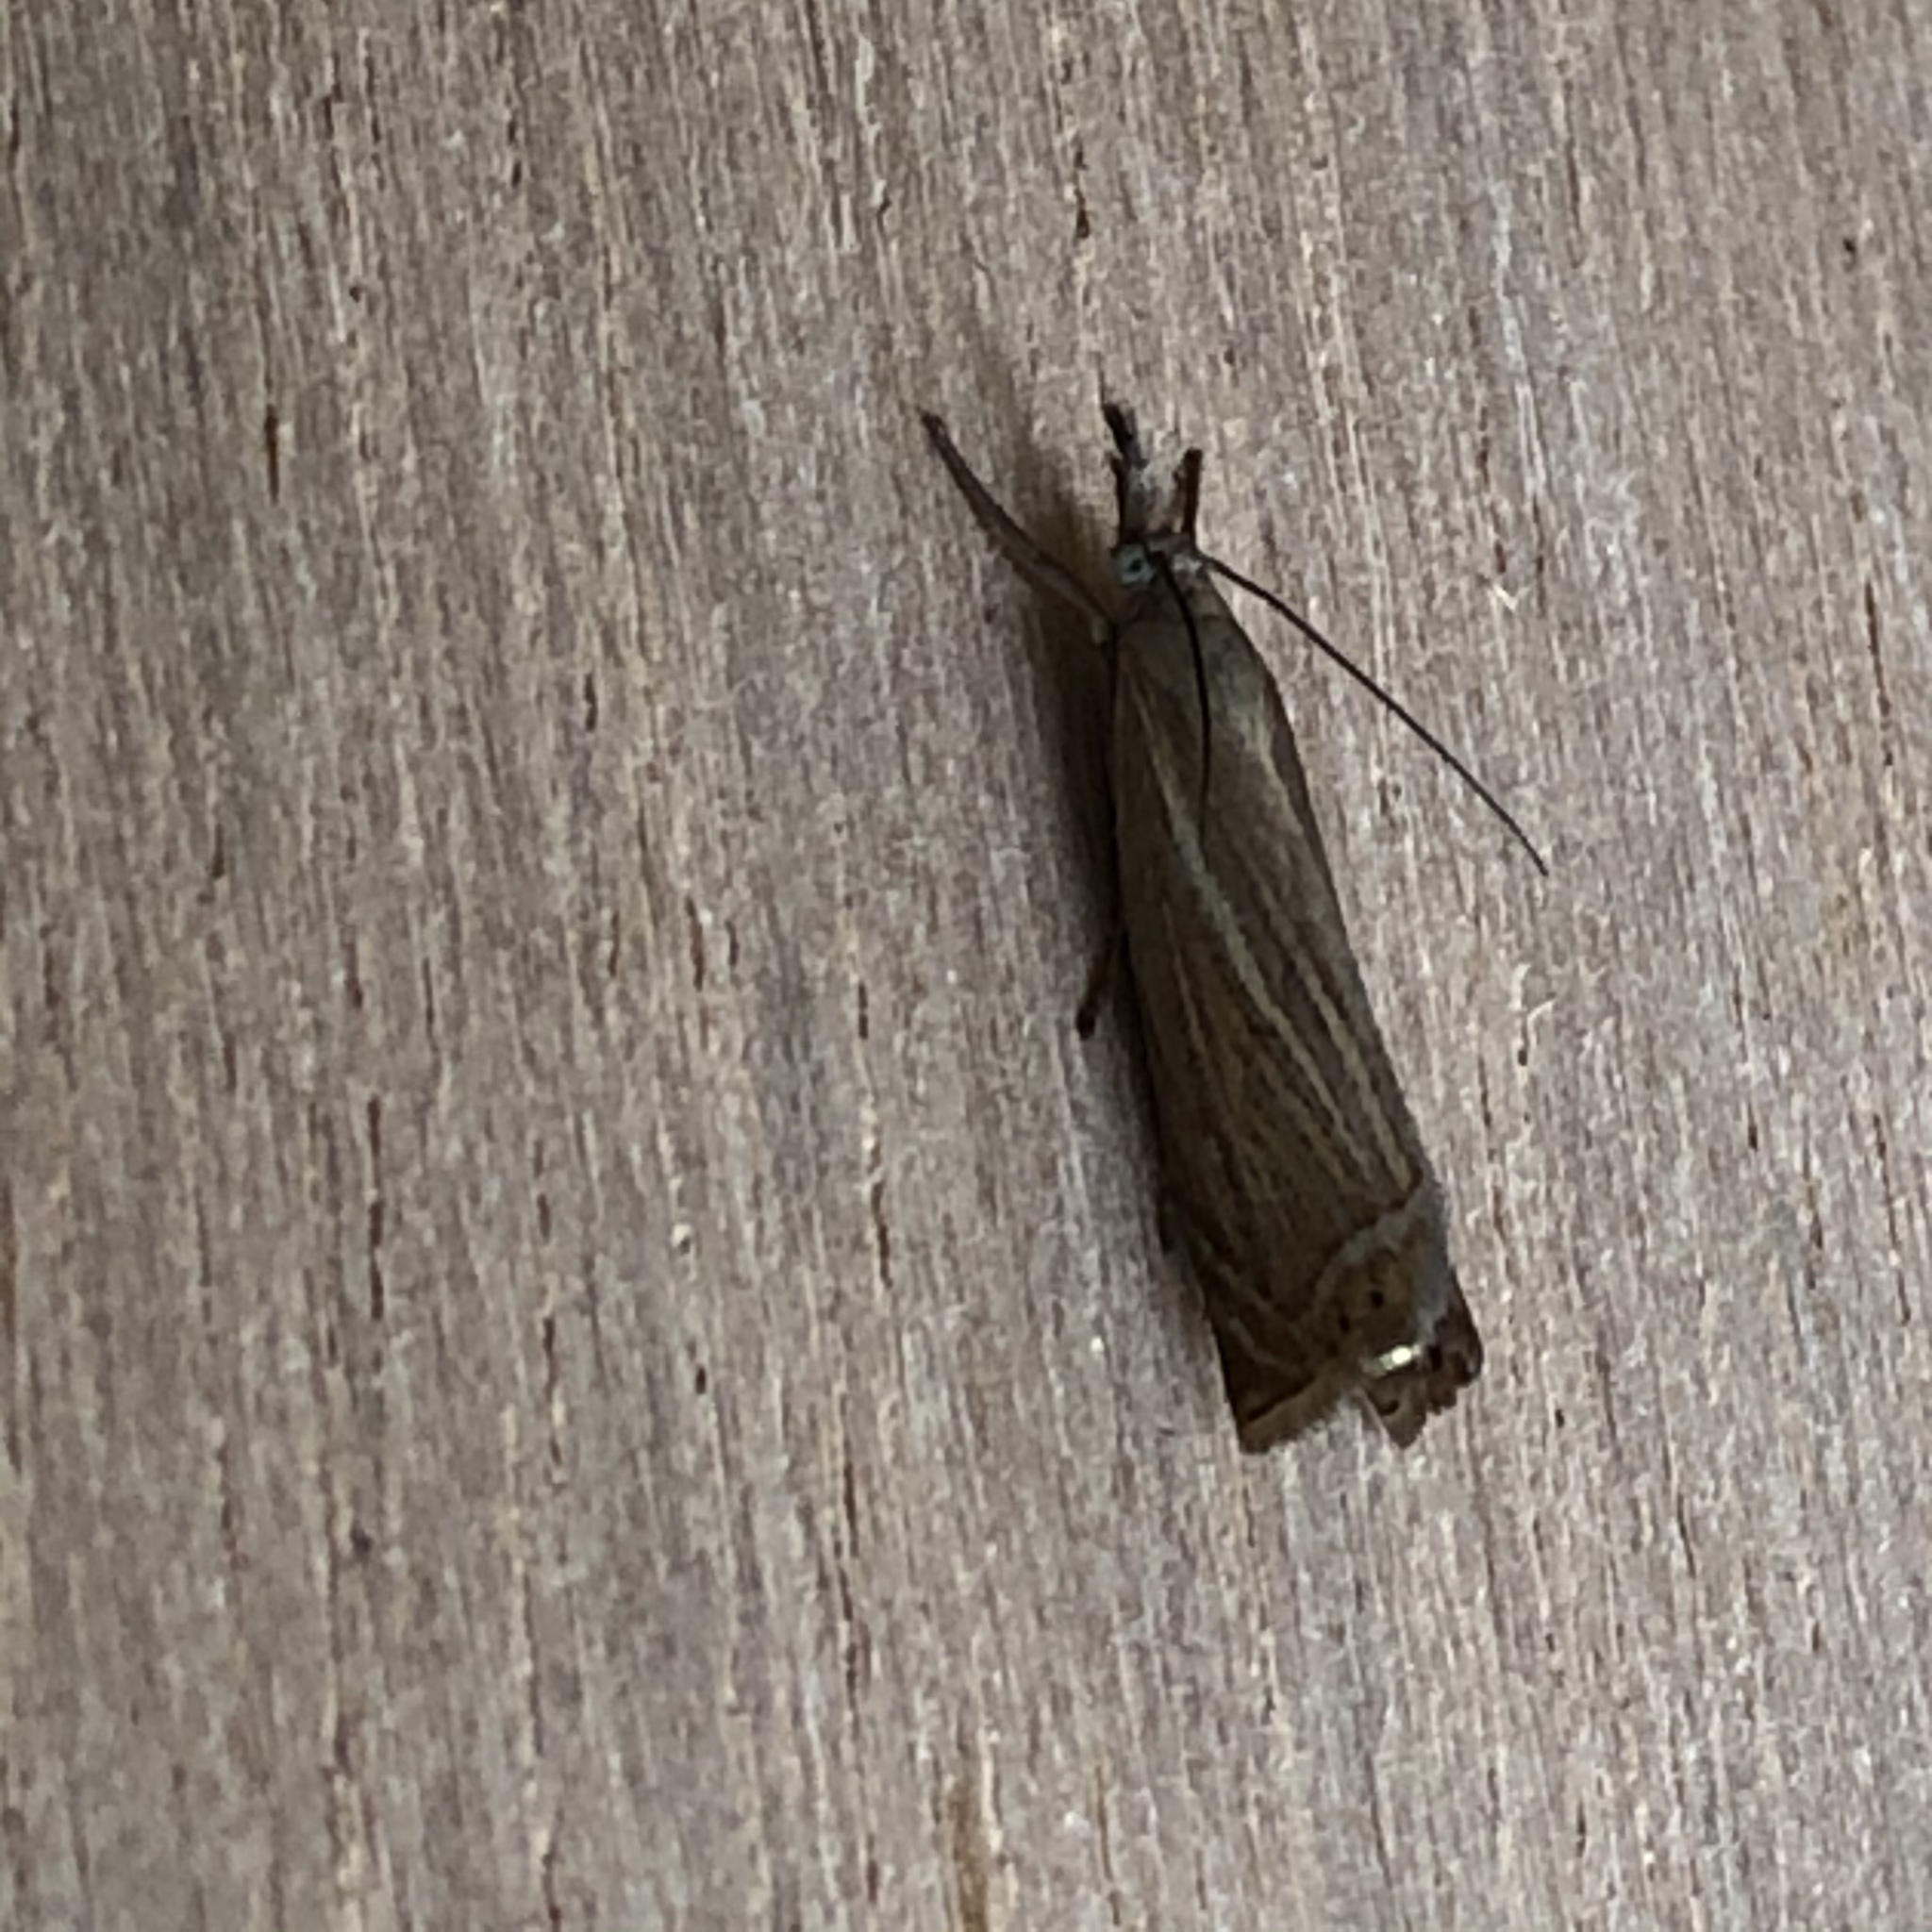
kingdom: Animalia
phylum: Arthropoda
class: Insecta
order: Lepidoptera
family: Crambidae
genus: Chrysoteuchia
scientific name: Chrysoteuchia culmella
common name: Garden grass-veneer
